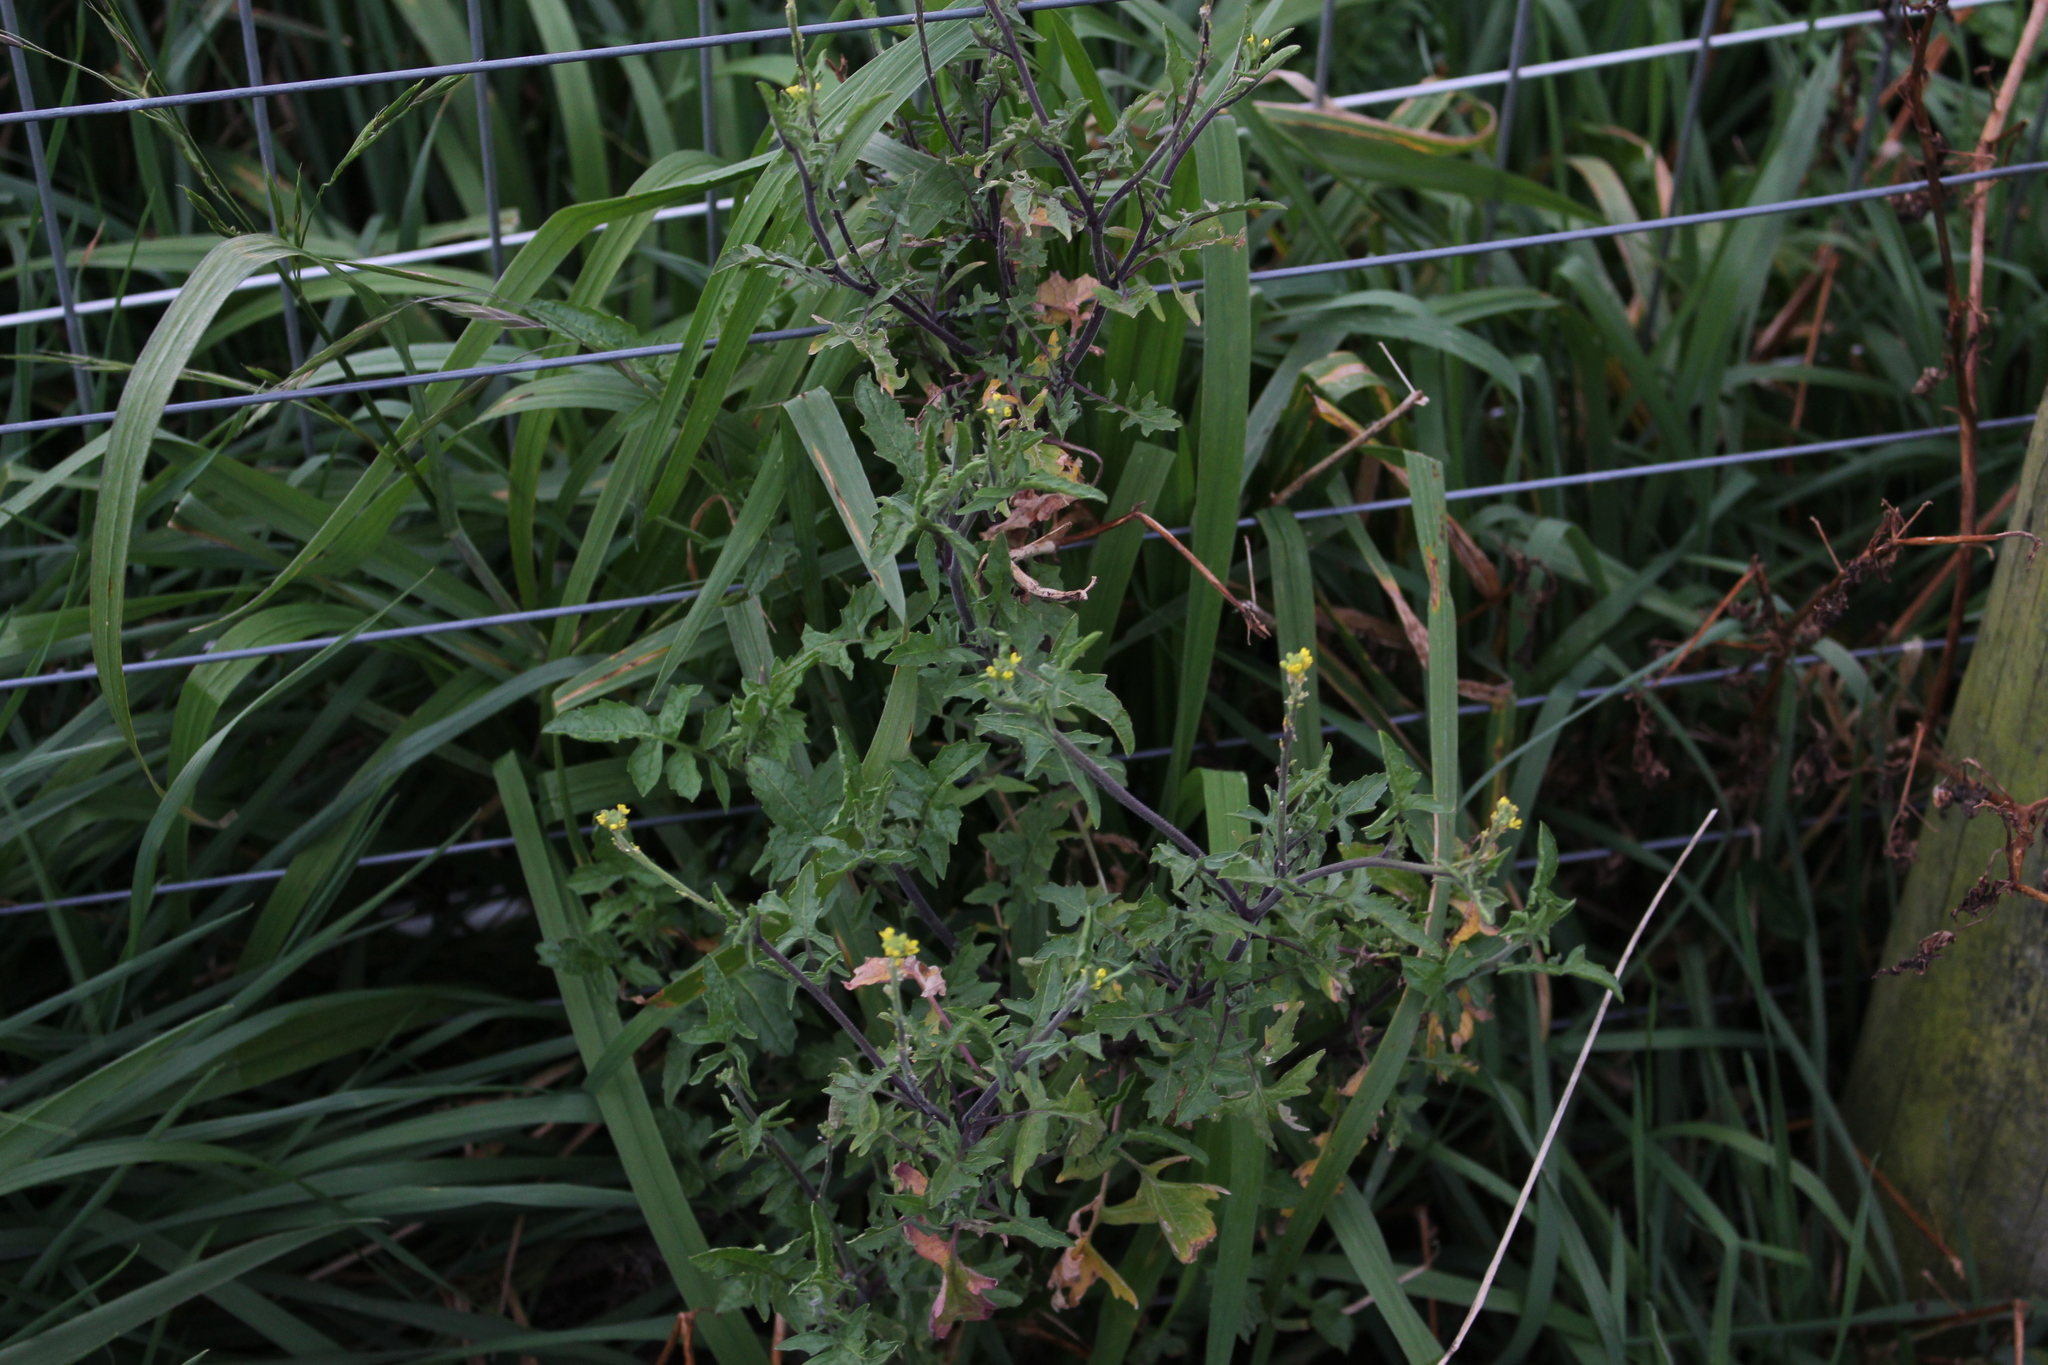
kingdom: Plantae
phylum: Tracheophyta
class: Magnoliopsida
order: Brassicales
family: Brassicaceae
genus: Sisymbrium
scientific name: Sisymbrium officinale
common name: Hedge mustard
